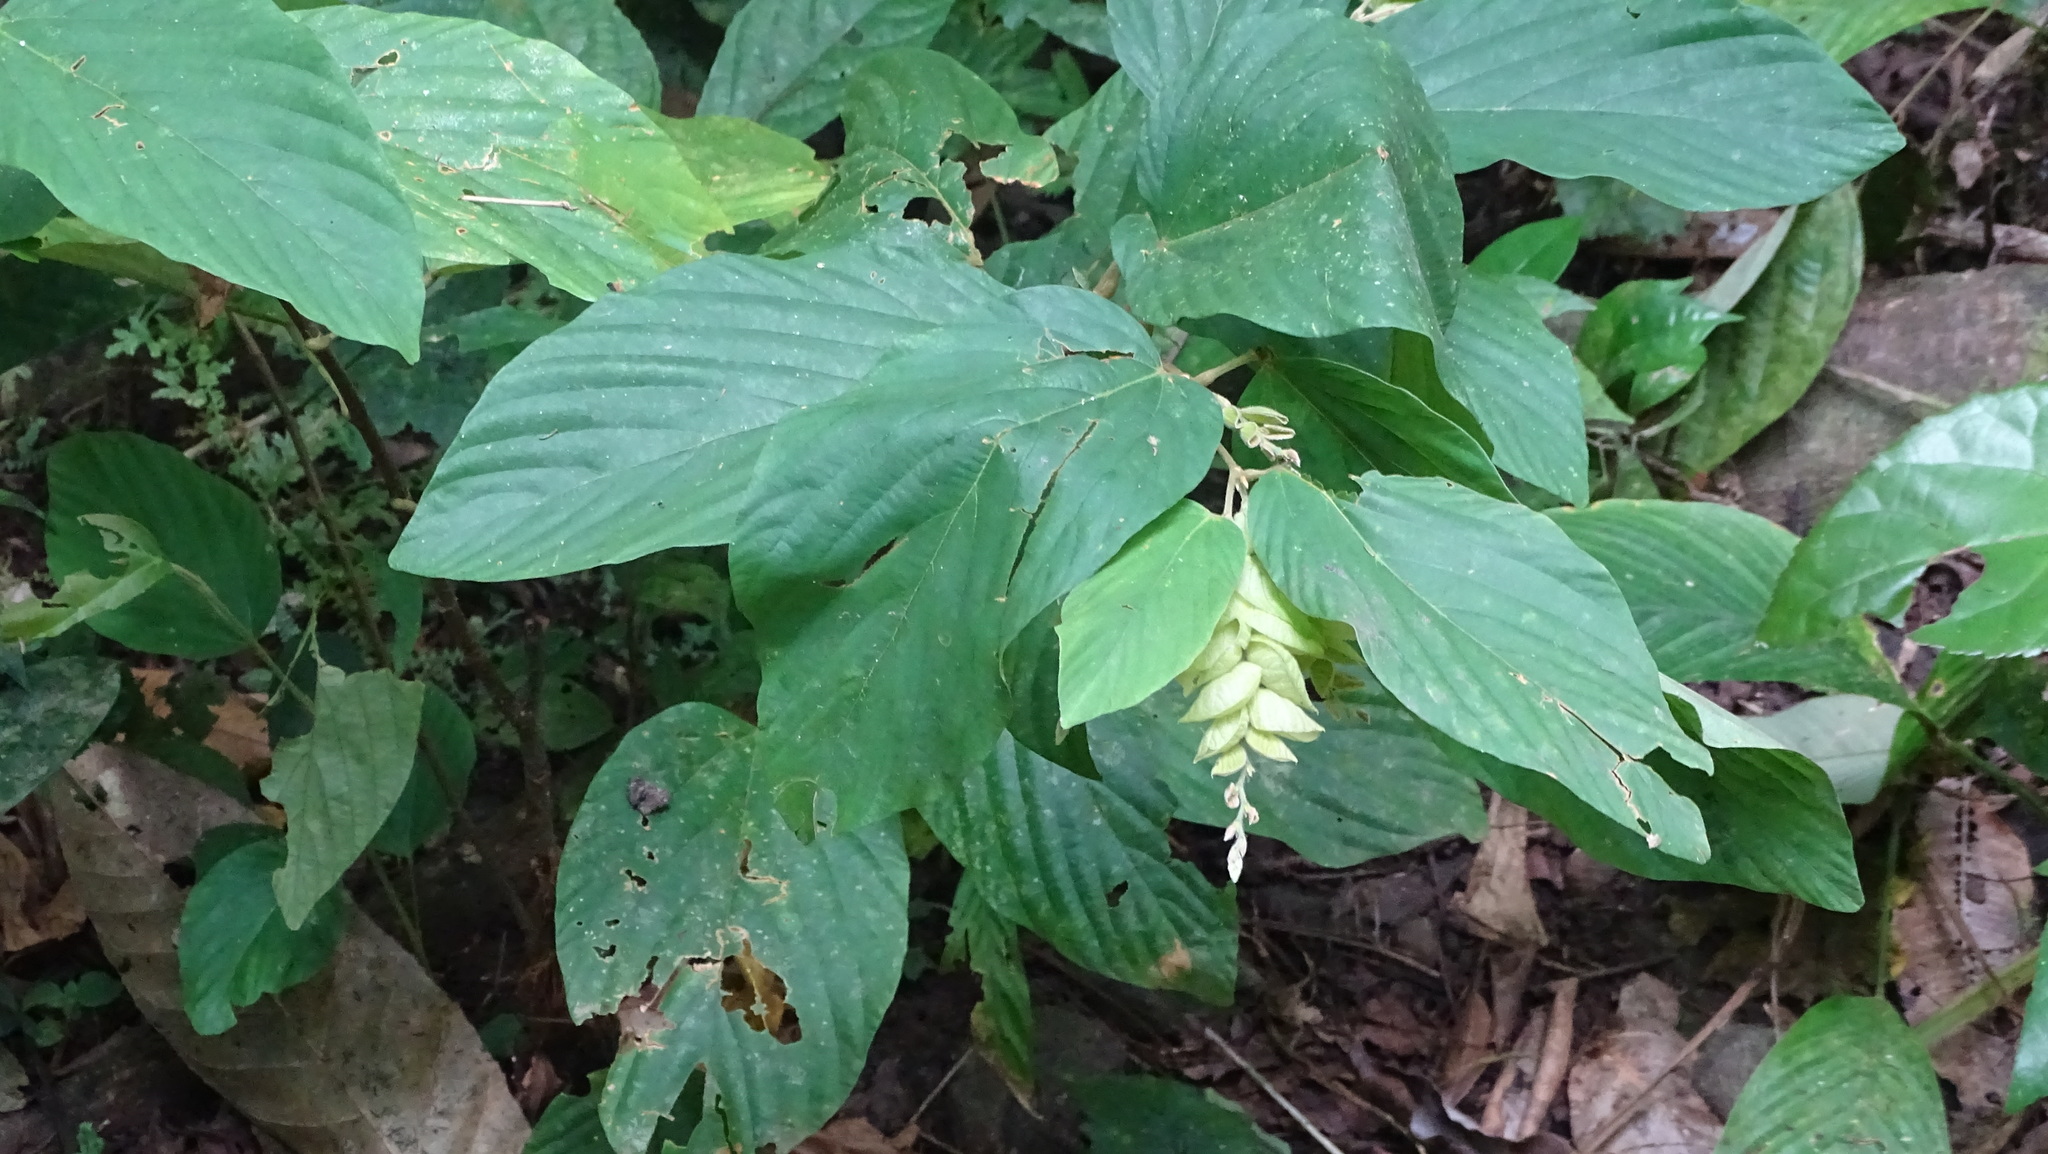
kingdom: Plantae
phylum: Tracheophyta
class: Magnoliopsida
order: Fabales
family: Fabaceae
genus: Flemingia
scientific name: Flemingia strobilifera
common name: Wild hops
